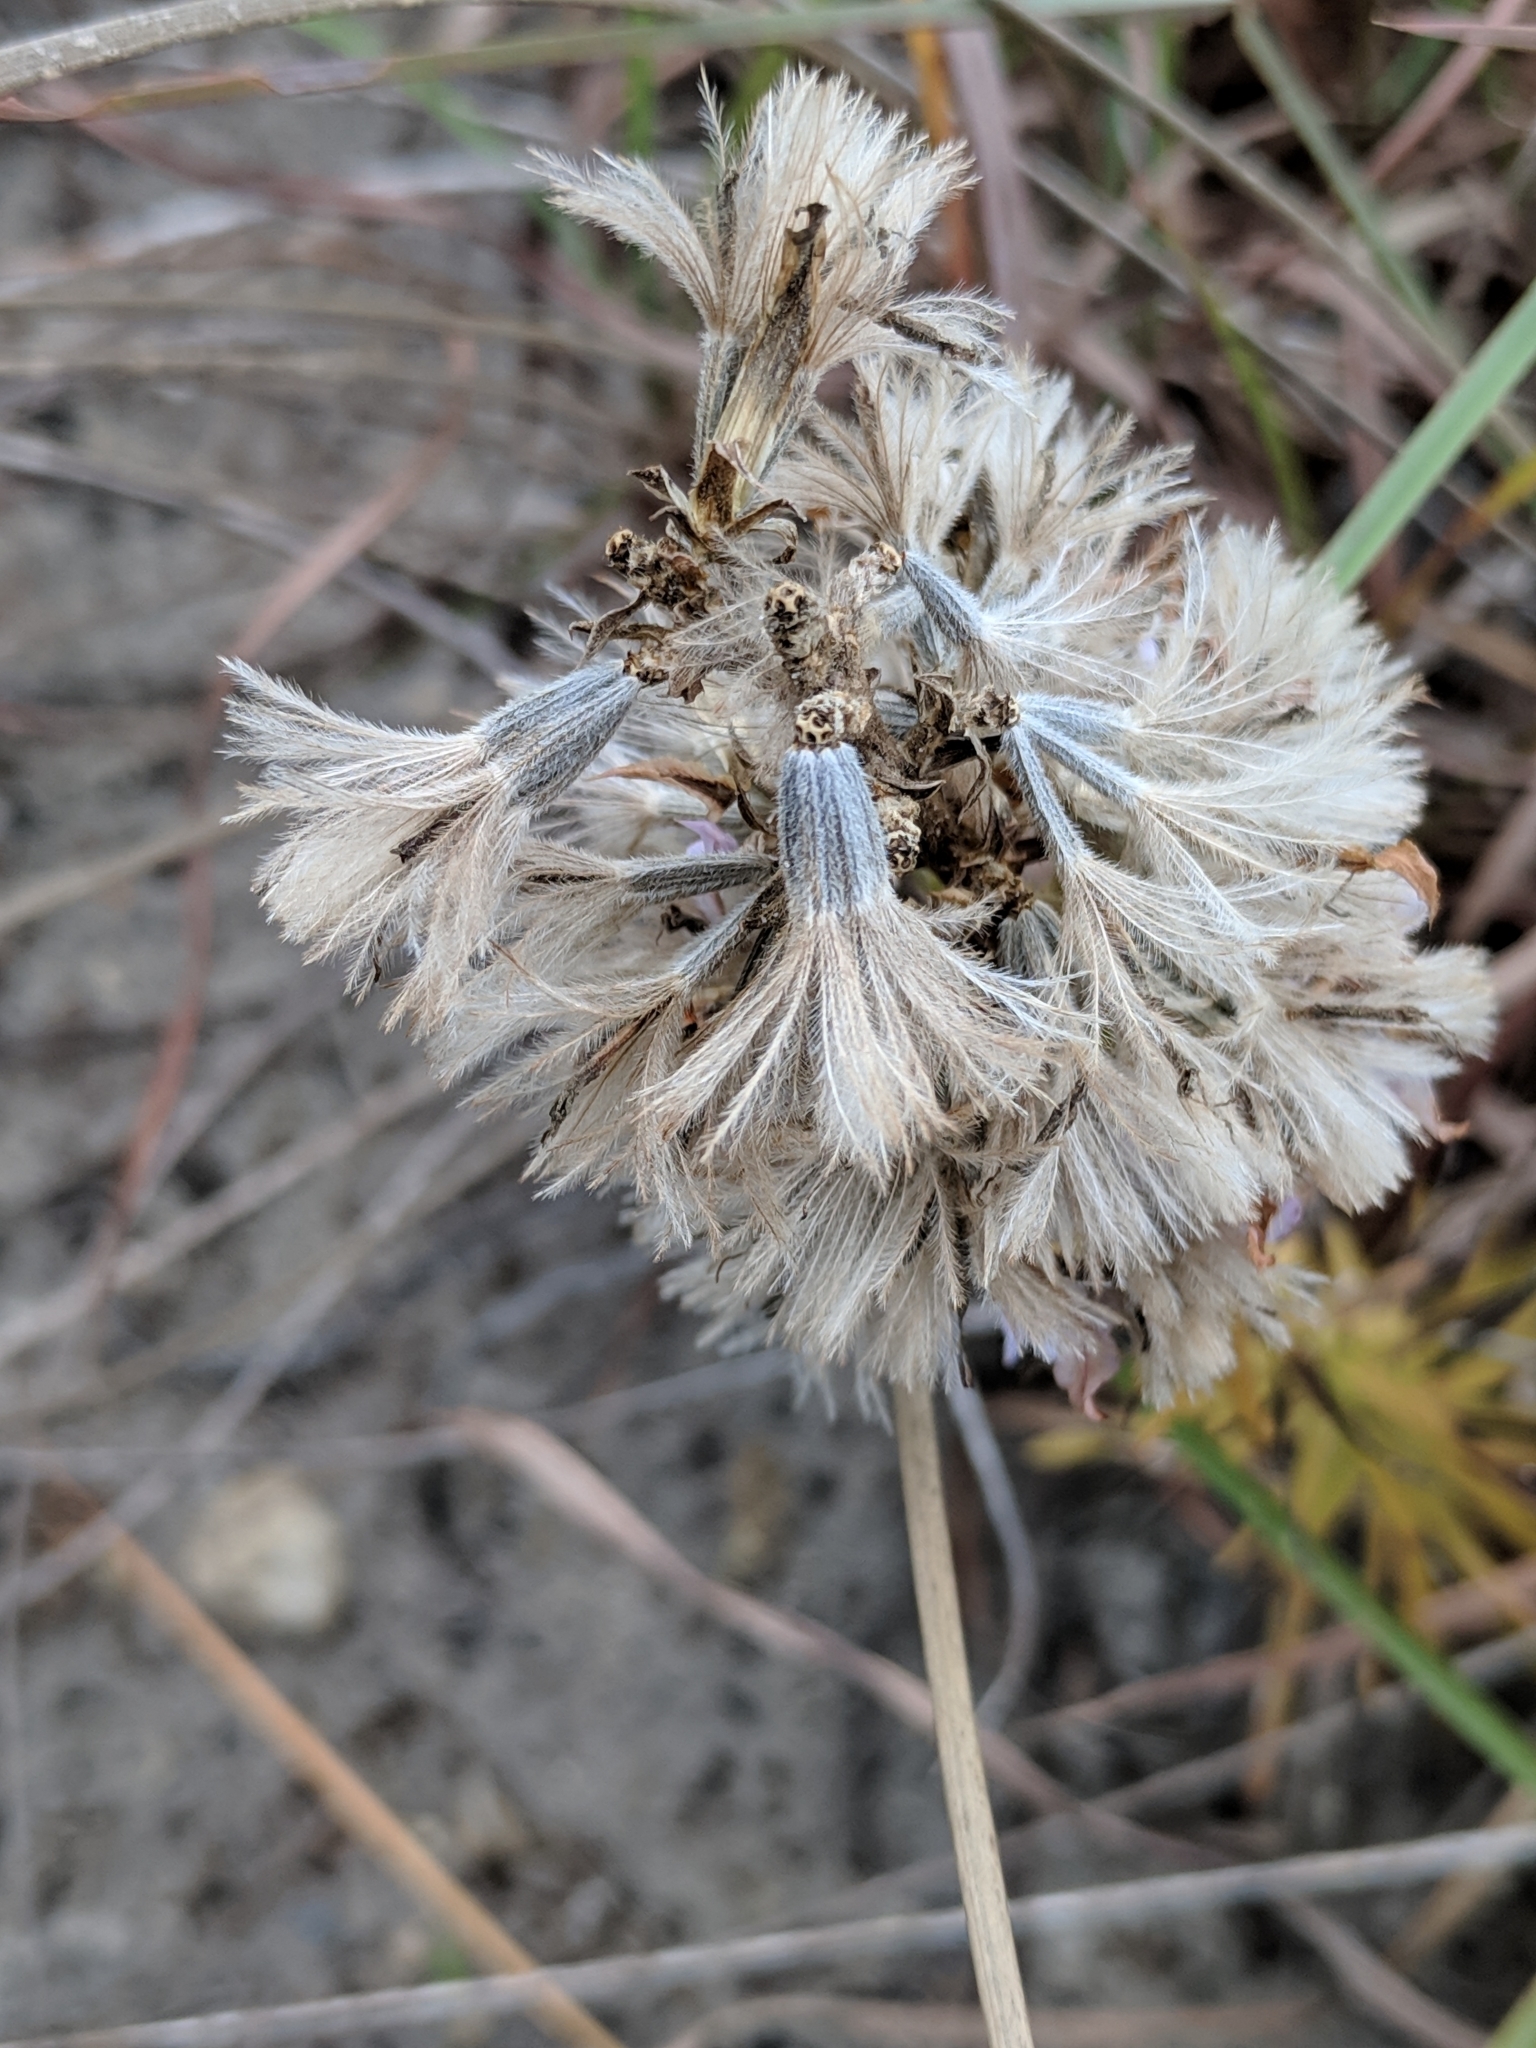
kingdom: Plantae
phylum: Tracheophyta
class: Magnoliopsida
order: Asterales
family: Asteraceae
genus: Liatris
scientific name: Liatris carizzana
